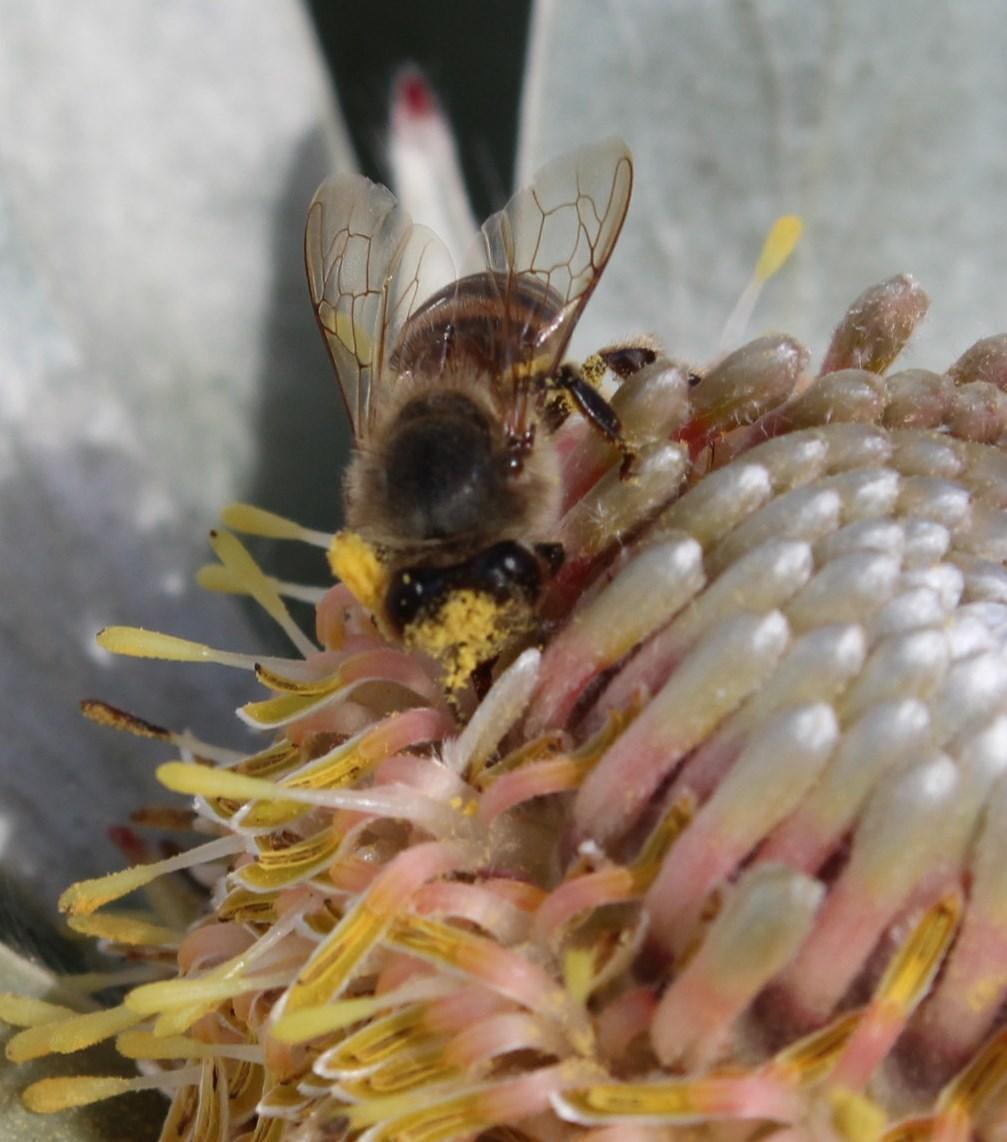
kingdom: Animalia
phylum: Arthropoda
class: Insecta
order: Hymenoptera
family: Apidae
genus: Apis
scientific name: Apis mellifera
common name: Honey bee
